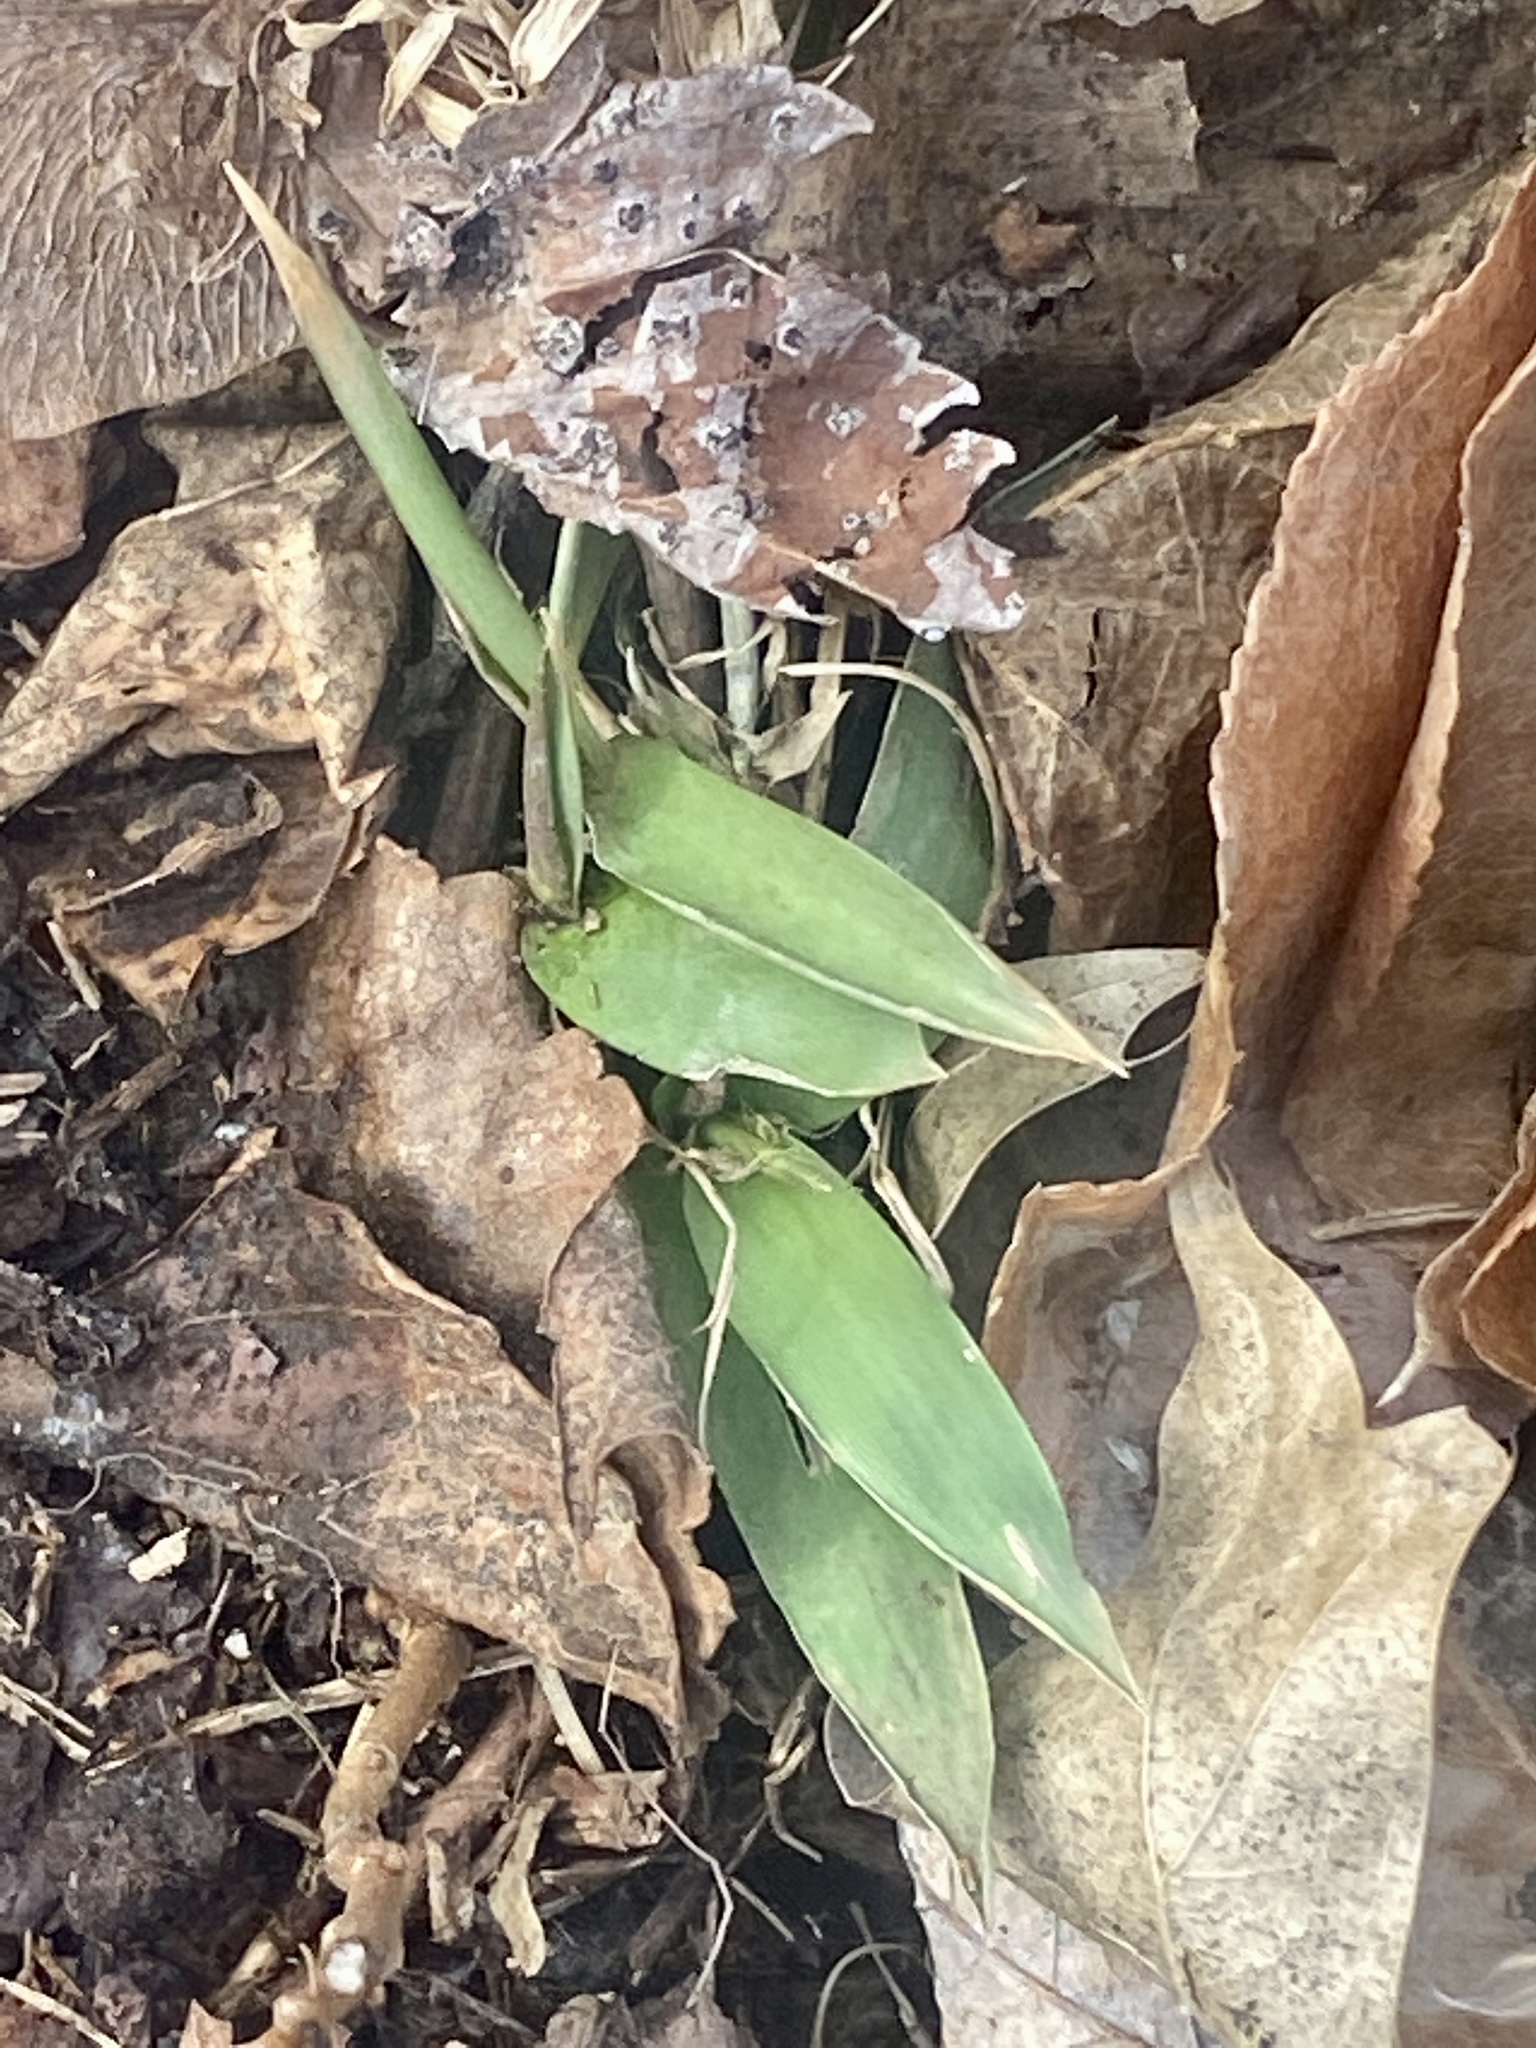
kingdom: Plantae
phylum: Tracheophyta
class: Liliopsida
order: Poales
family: Poaceae
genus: Dichanthelium
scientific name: Dichanthelium clandestinum
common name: Deer-tongue grass
